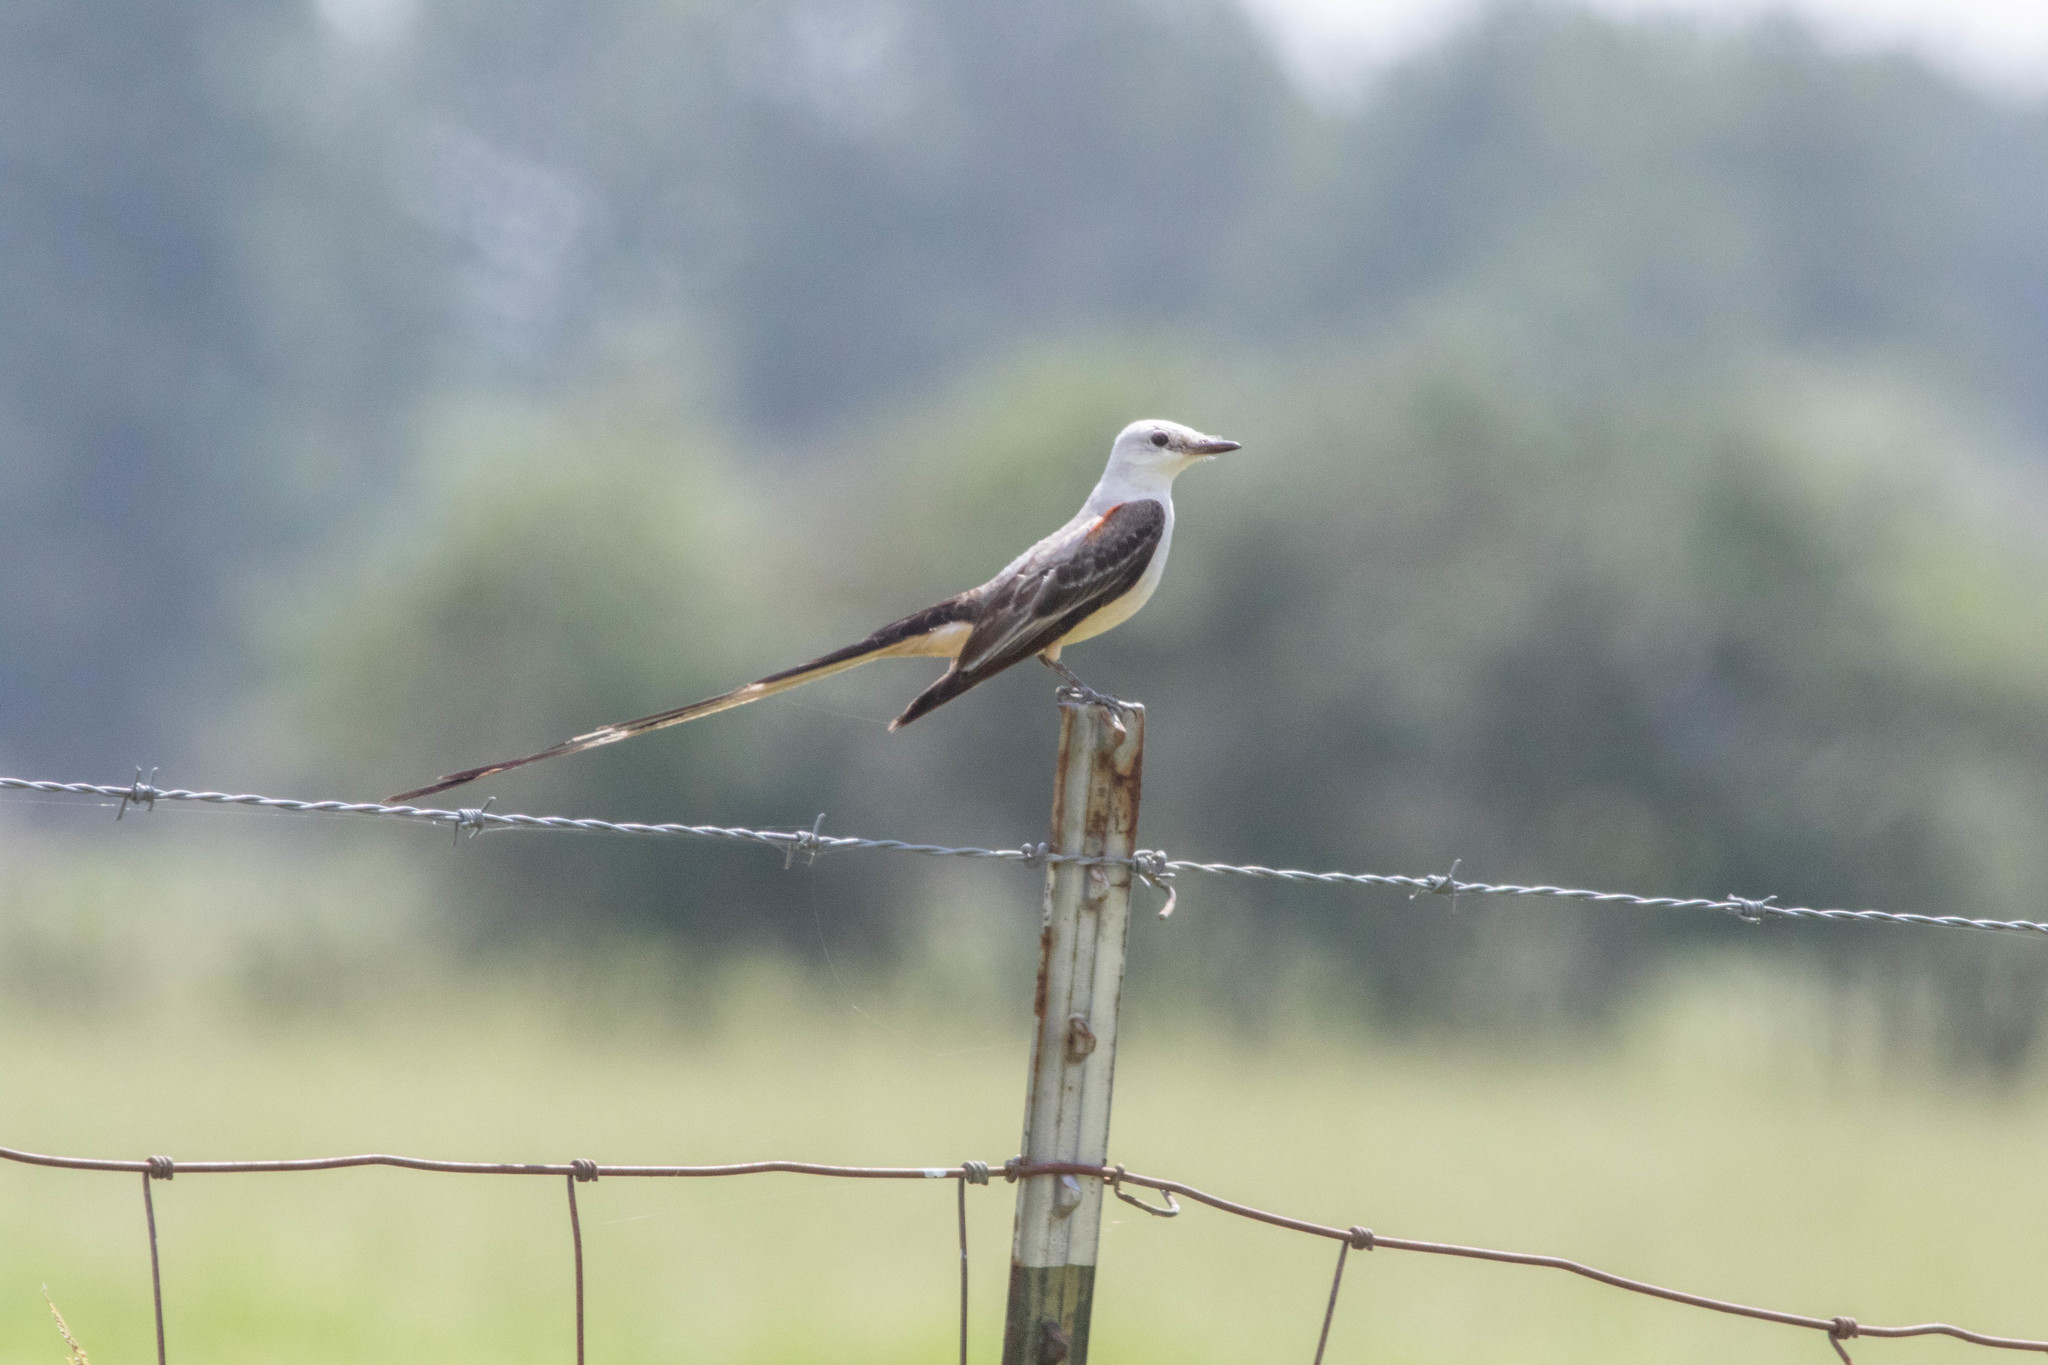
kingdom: Animalia
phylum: Chordata
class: Aves
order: Passeriformes
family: Tyrannidae
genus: Tyrannus
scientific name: Tyrannus forficatus
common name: Scissor-tailed flycatcher
